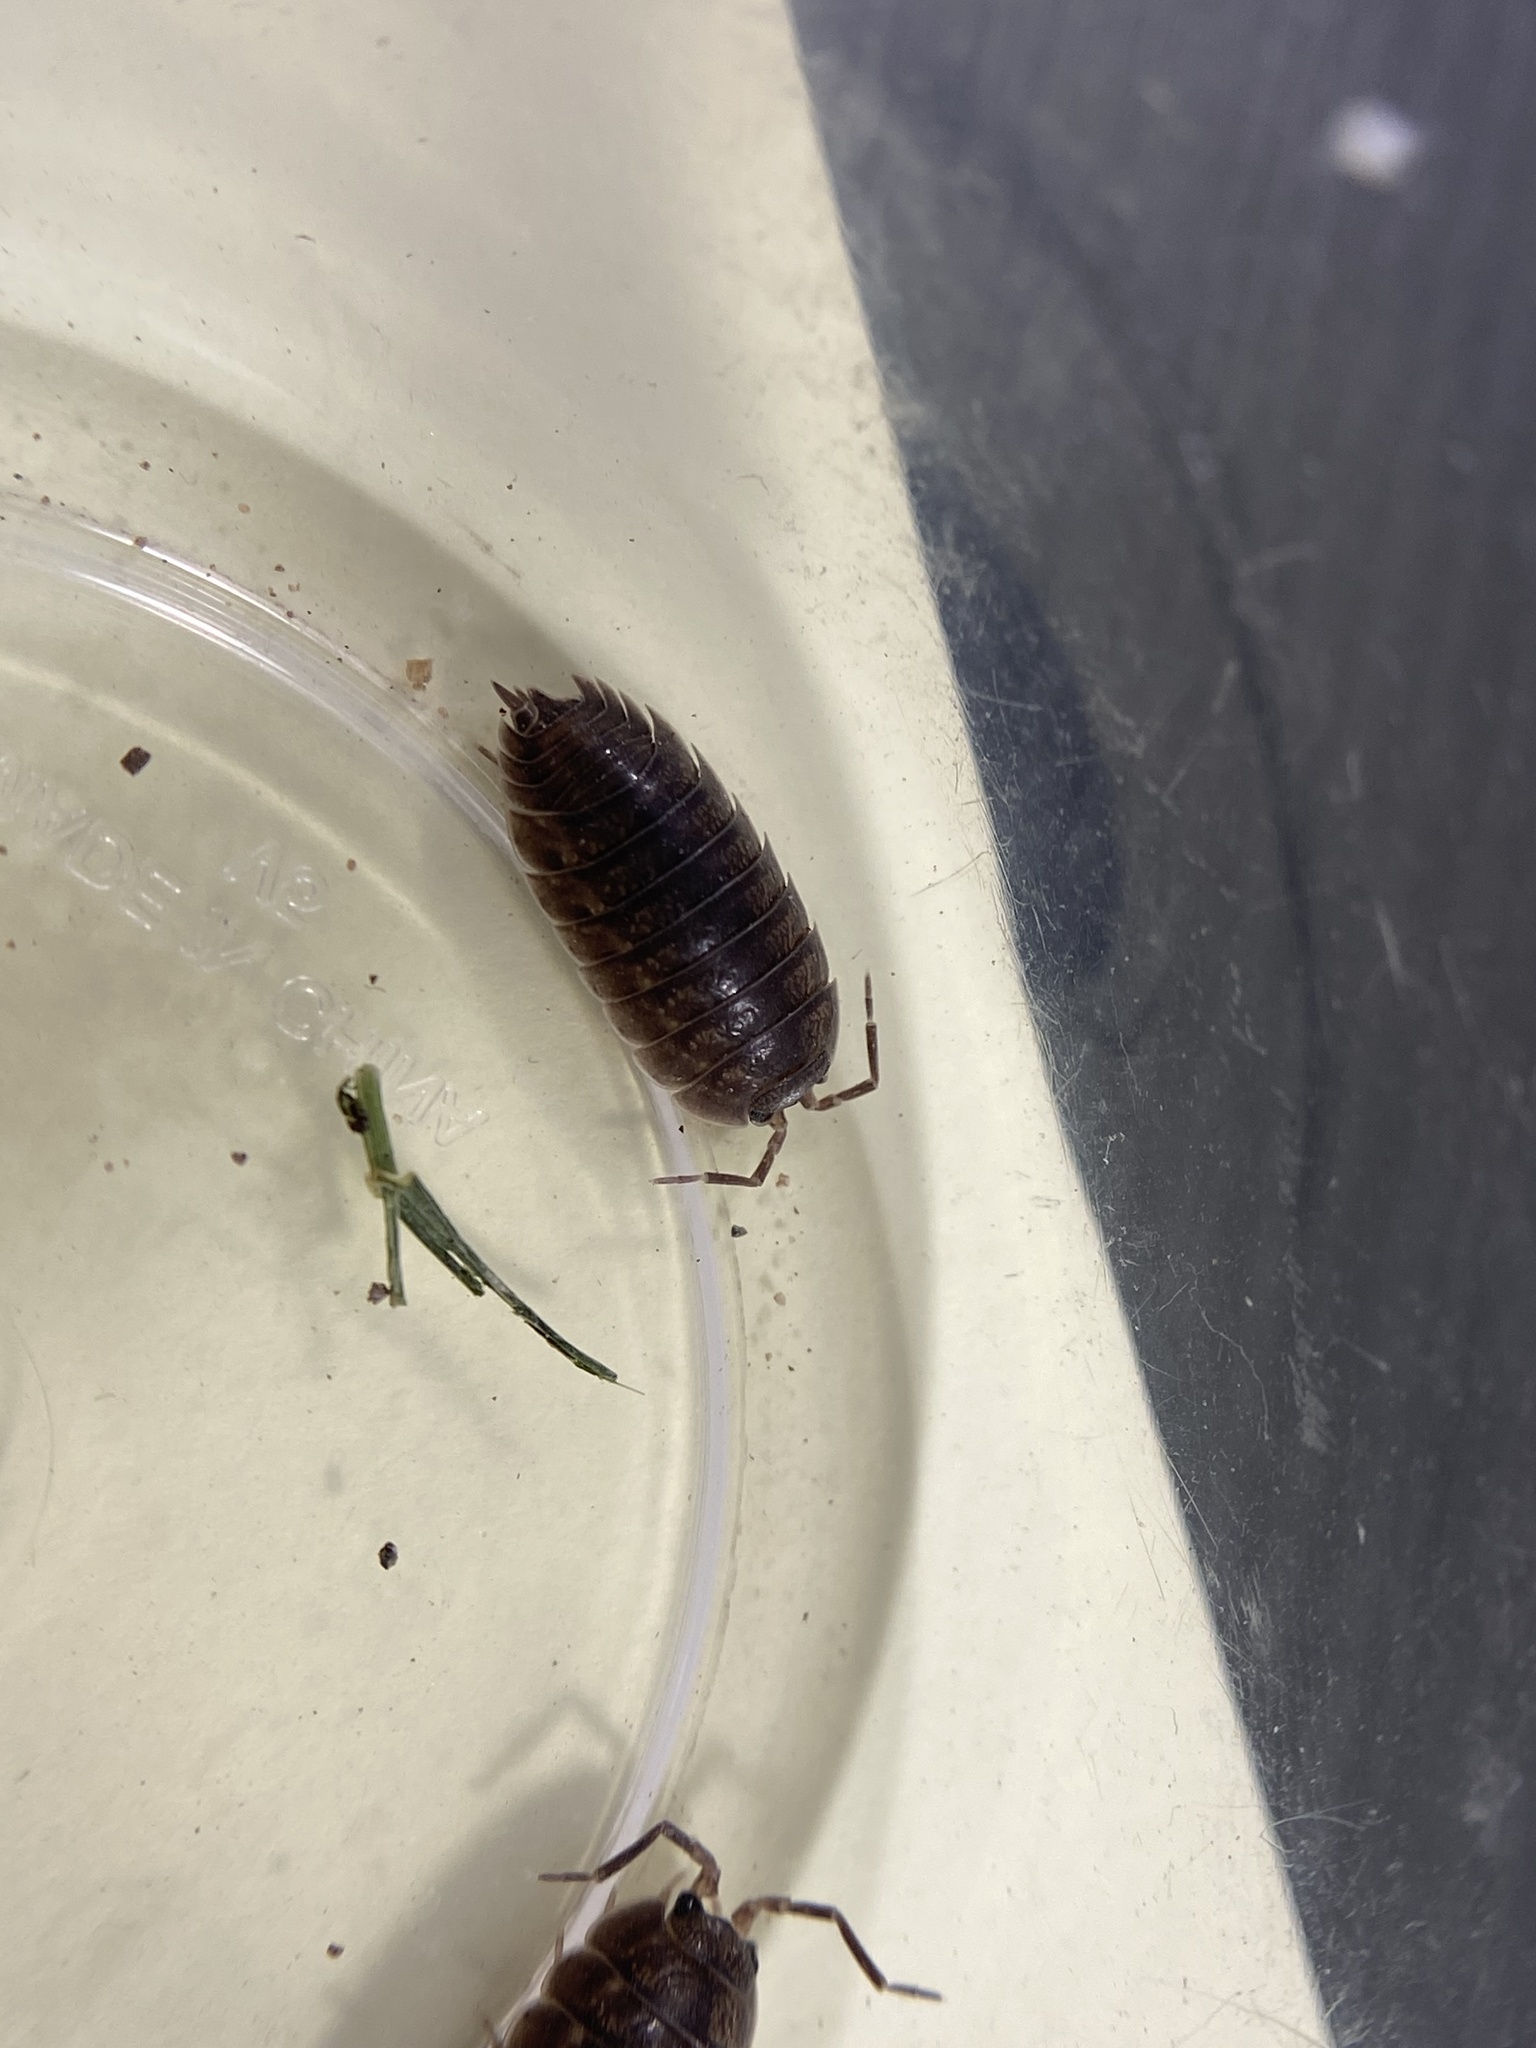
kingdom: Animalia
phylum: Arthropoda
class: Malacostraca
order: Isopoda
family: Porcellionidae
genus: Porcellio
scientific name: Porcellio laevis
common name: Swift woodlouse
